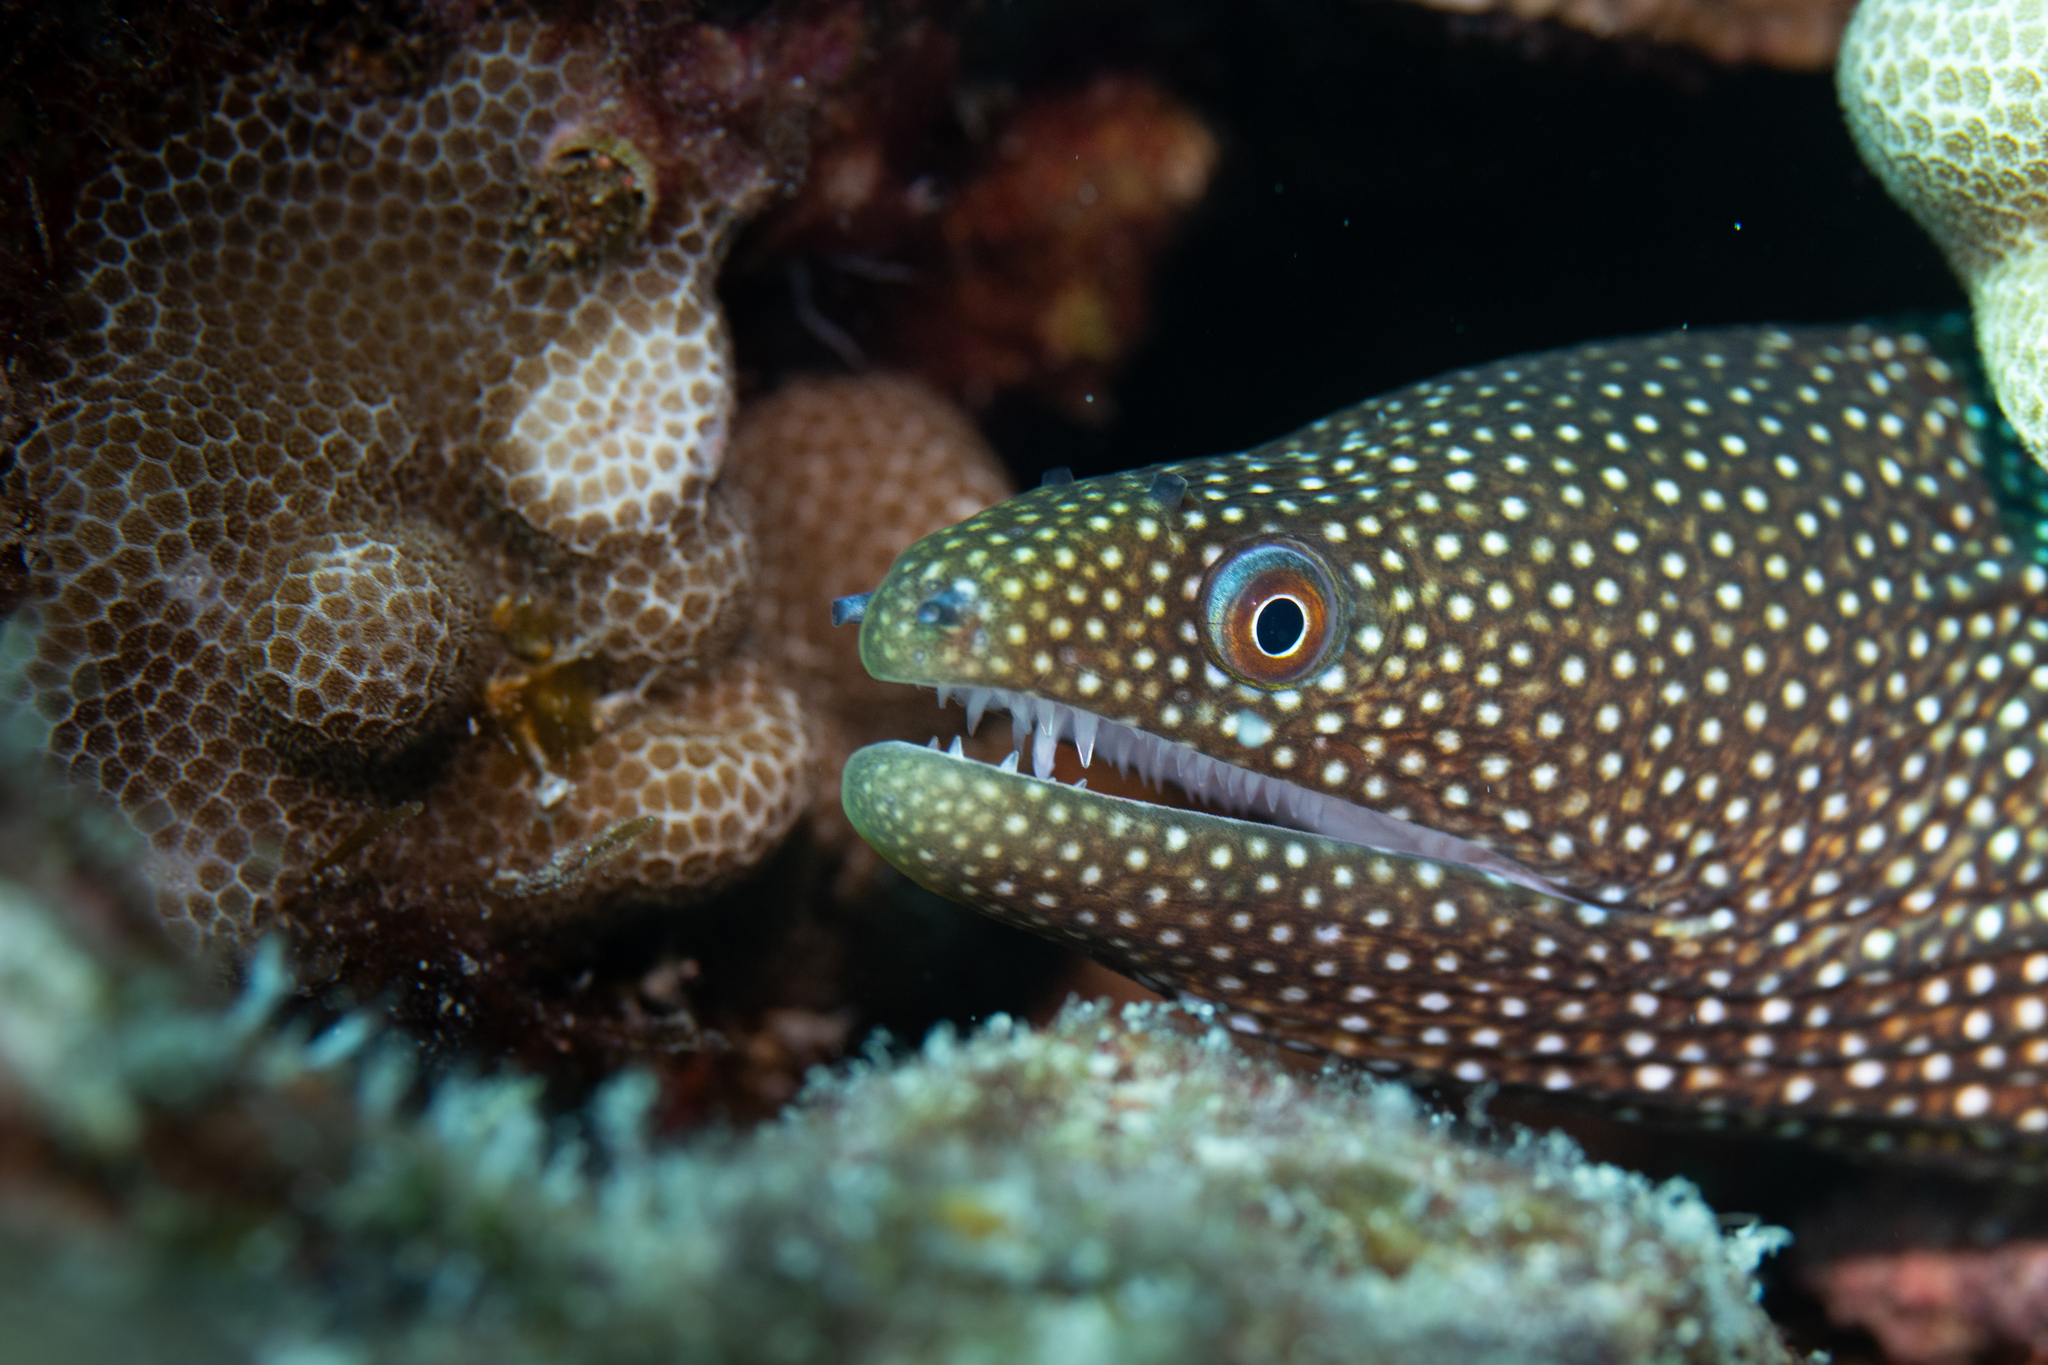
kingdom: Animalia
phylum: Chordata
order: Anguilliformes
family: Muraenidae
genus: Gymnothorax
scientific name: Gymnothorax meleagris
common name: Guineafowl moray
